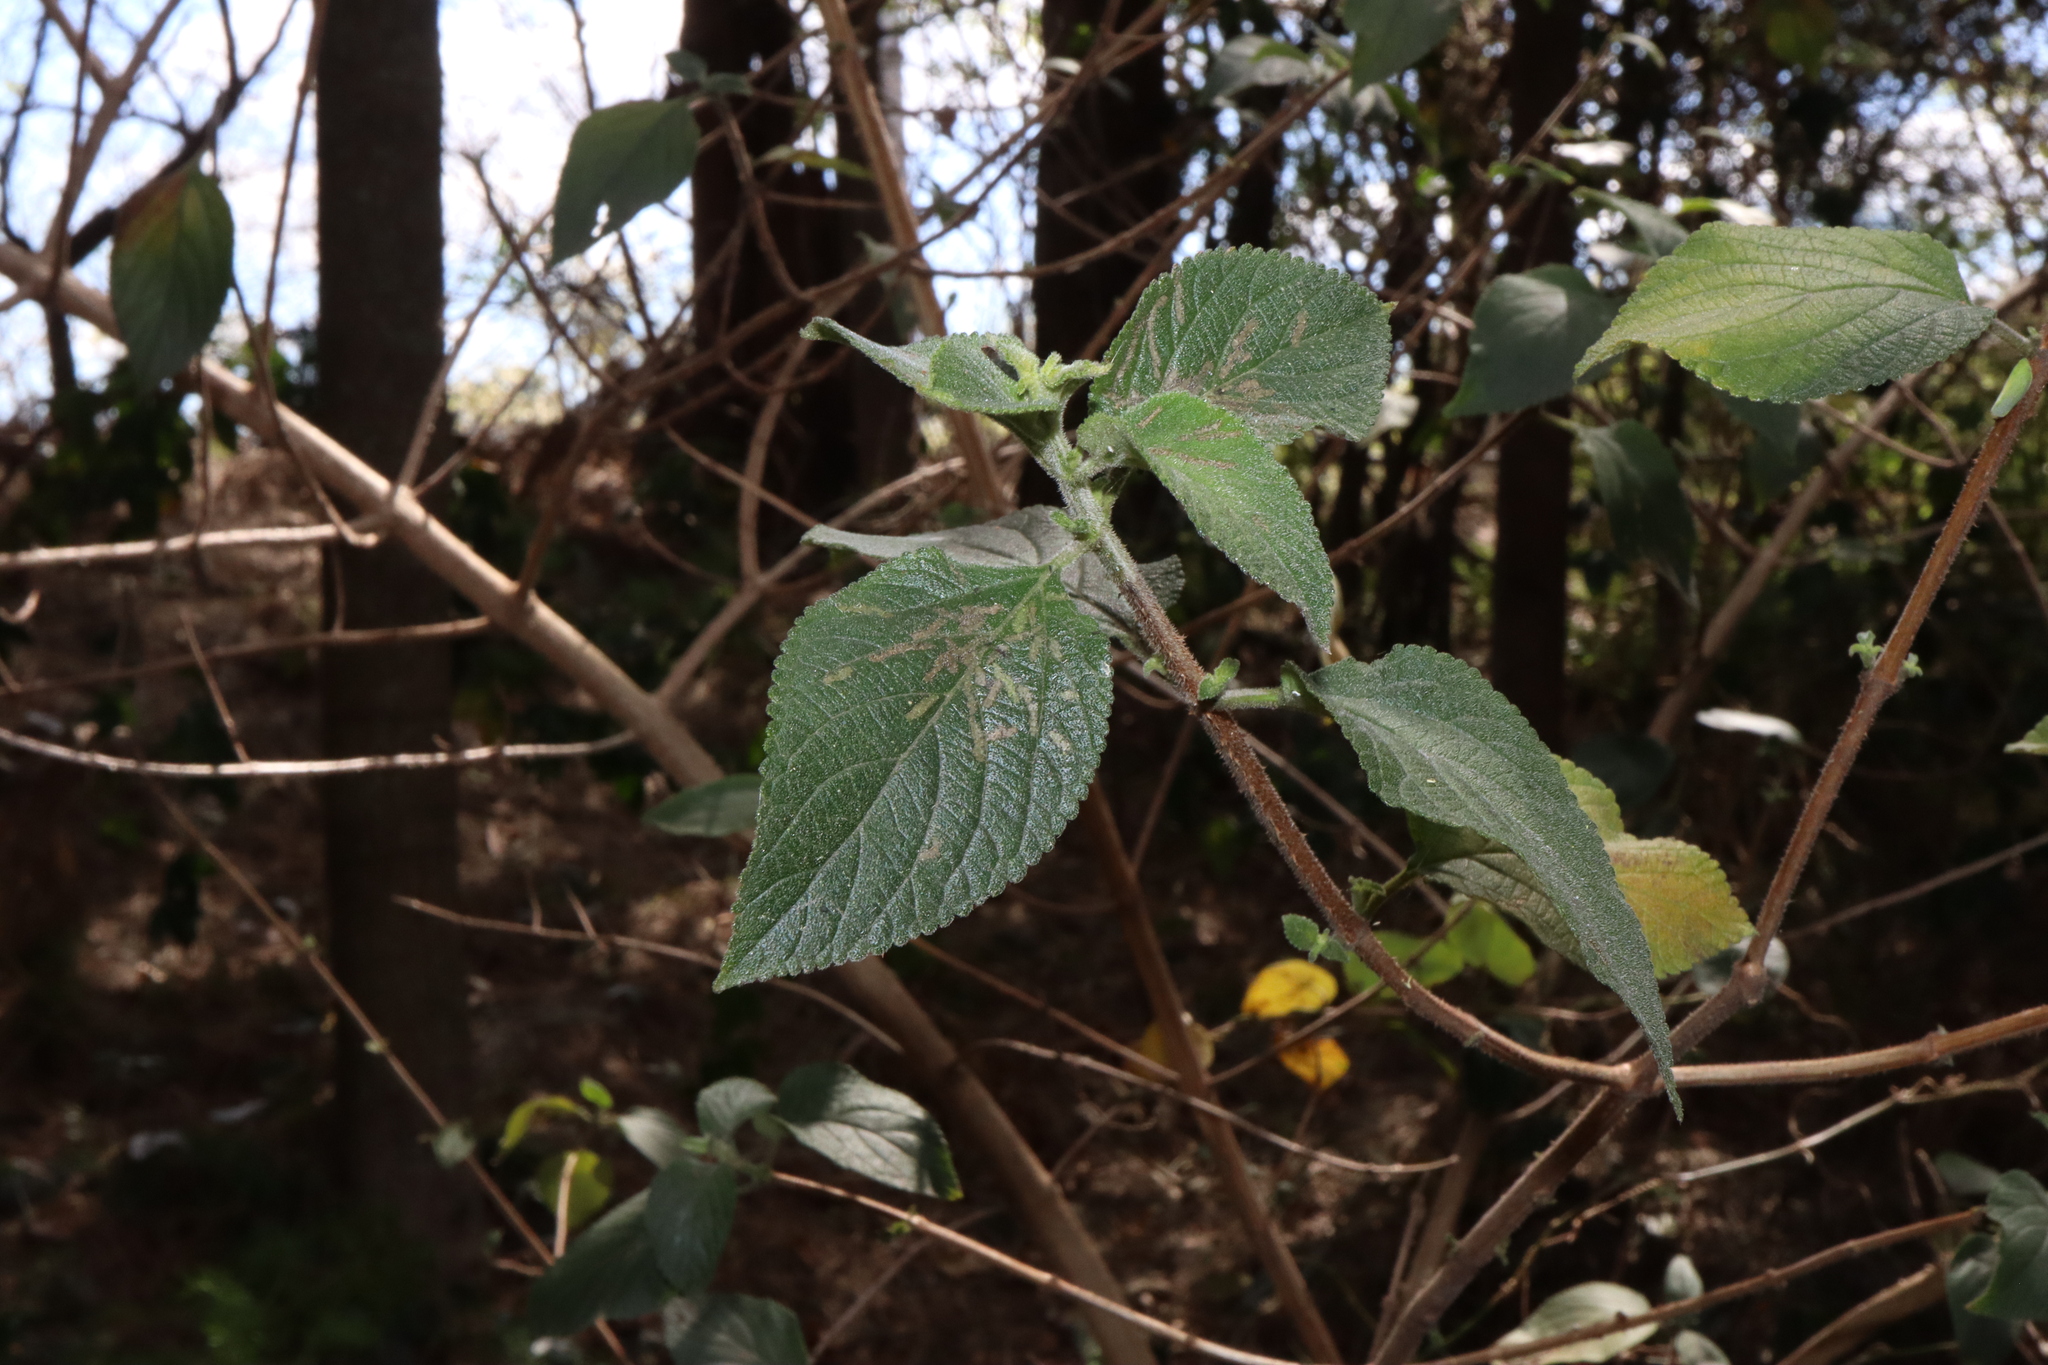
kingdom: Plantae
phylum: Tracheophyta
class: Magnoliopsida
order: Lamiales
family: Verbenaceae
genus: Lantana
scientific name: Lantana camara
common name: Lantana
